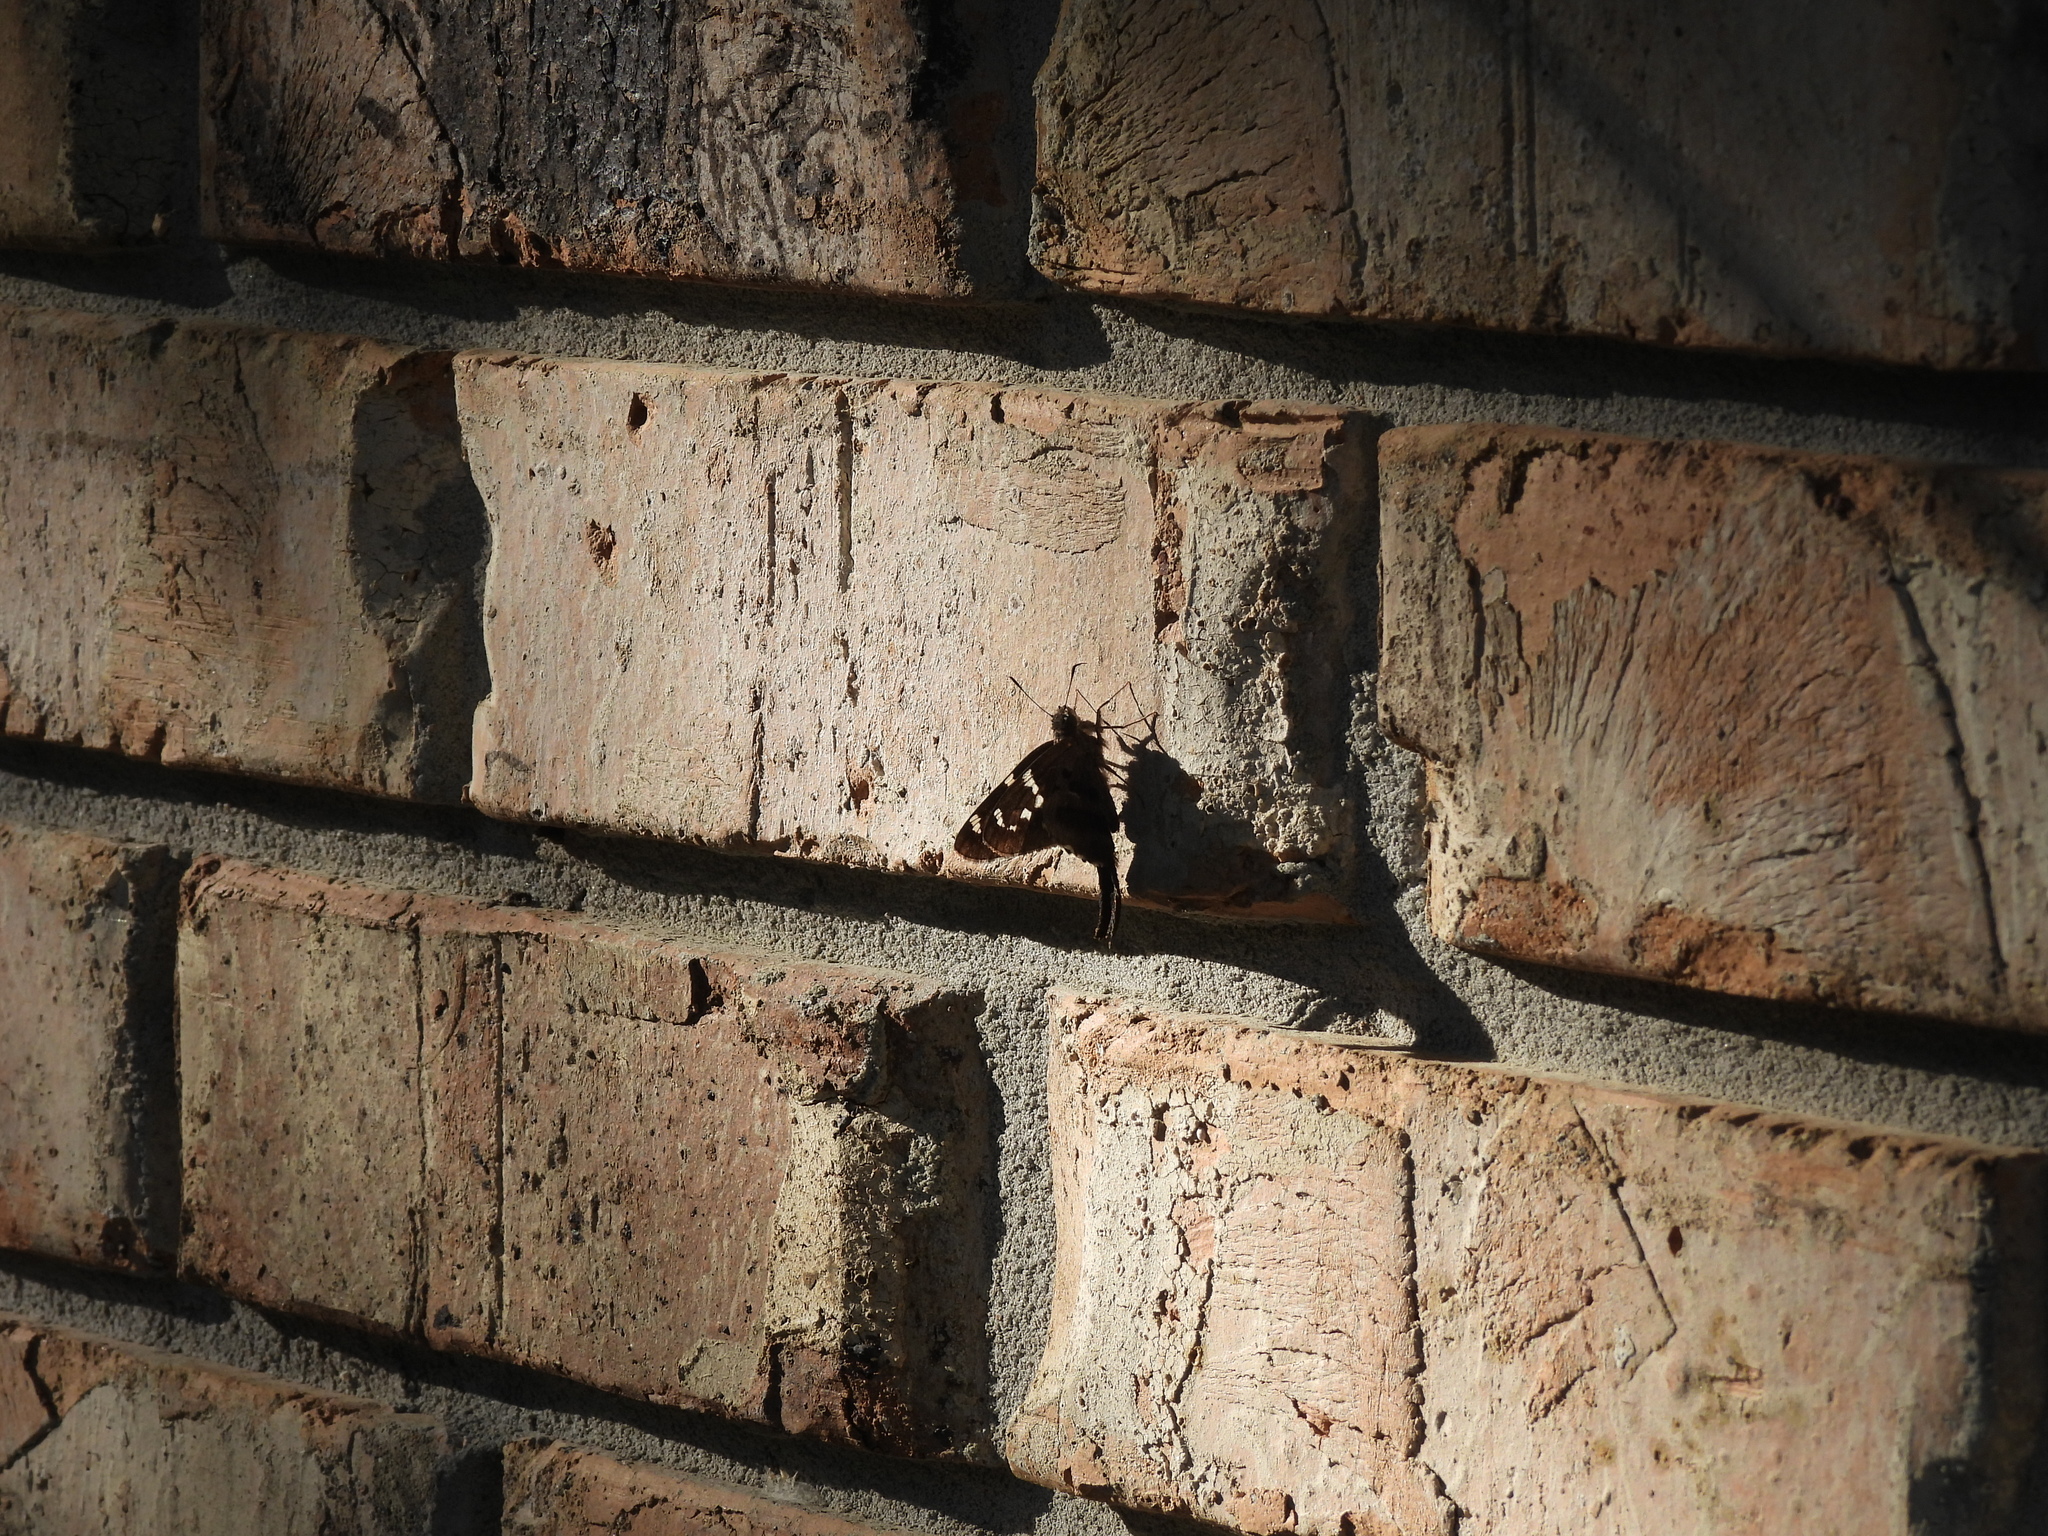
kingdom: Animalia
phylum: Arthropoda
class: Insecta
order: Lepidoptera
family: Hesperiidae
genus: Urbanus
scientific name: Urbanus proteus
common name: Long-tailed skipper
